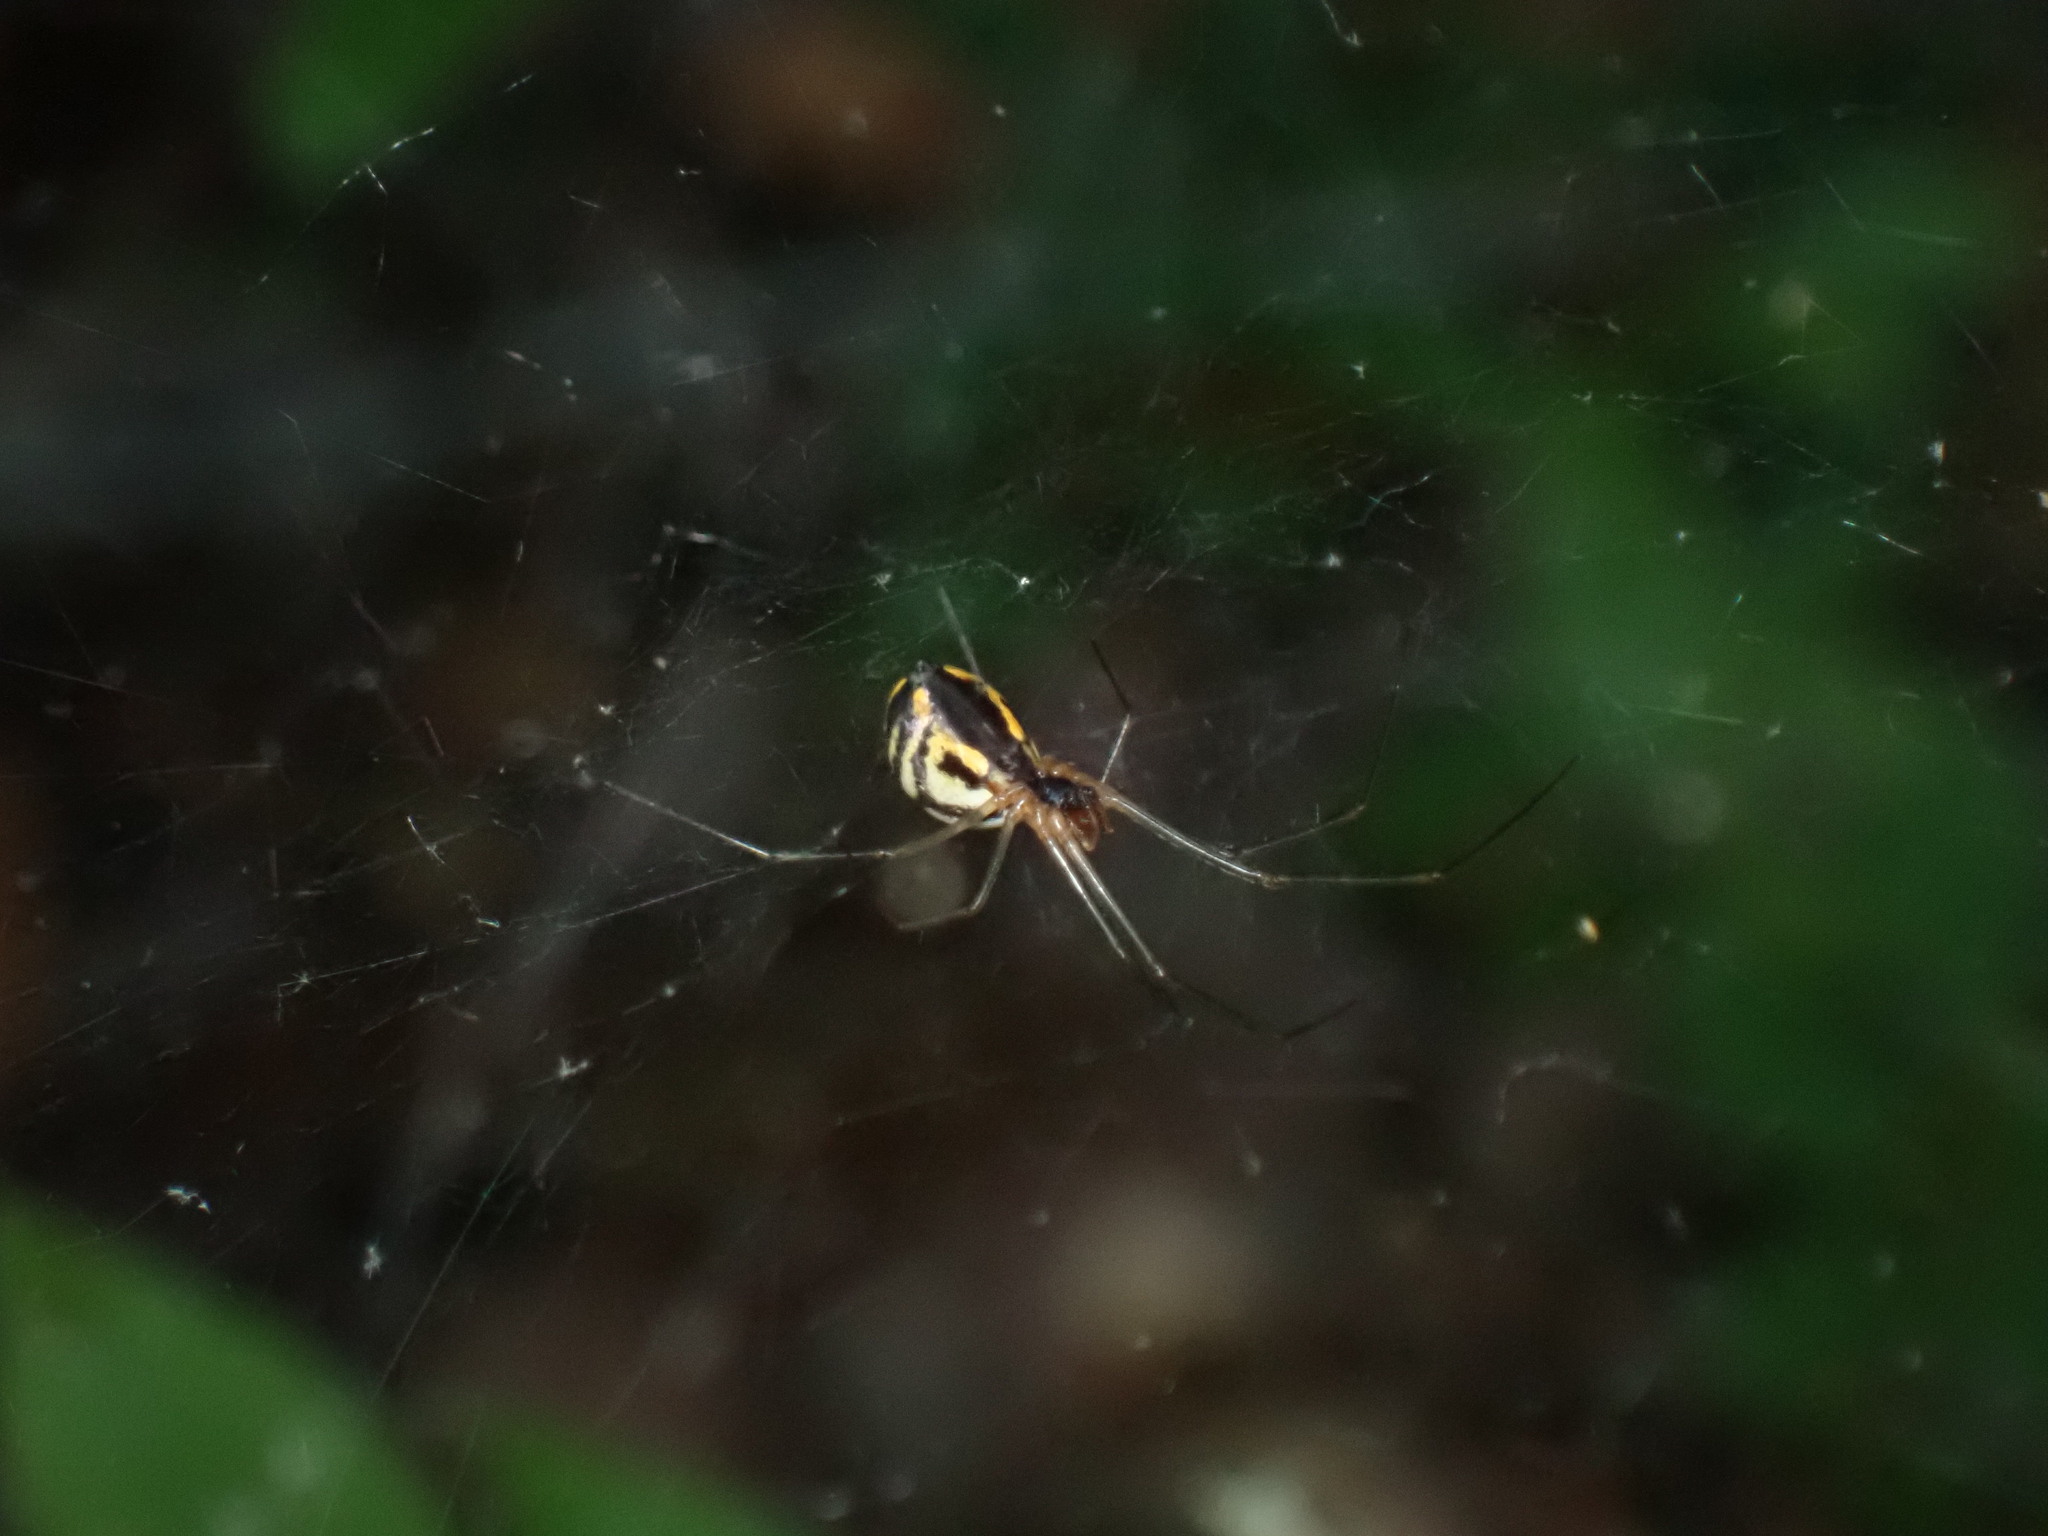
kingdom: Animalia
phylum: Arthropoda
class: Arachnida
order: Araneae
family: Linyphiidae
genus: Neriene
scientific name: Neriene radiata
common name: Filmy dome spider
